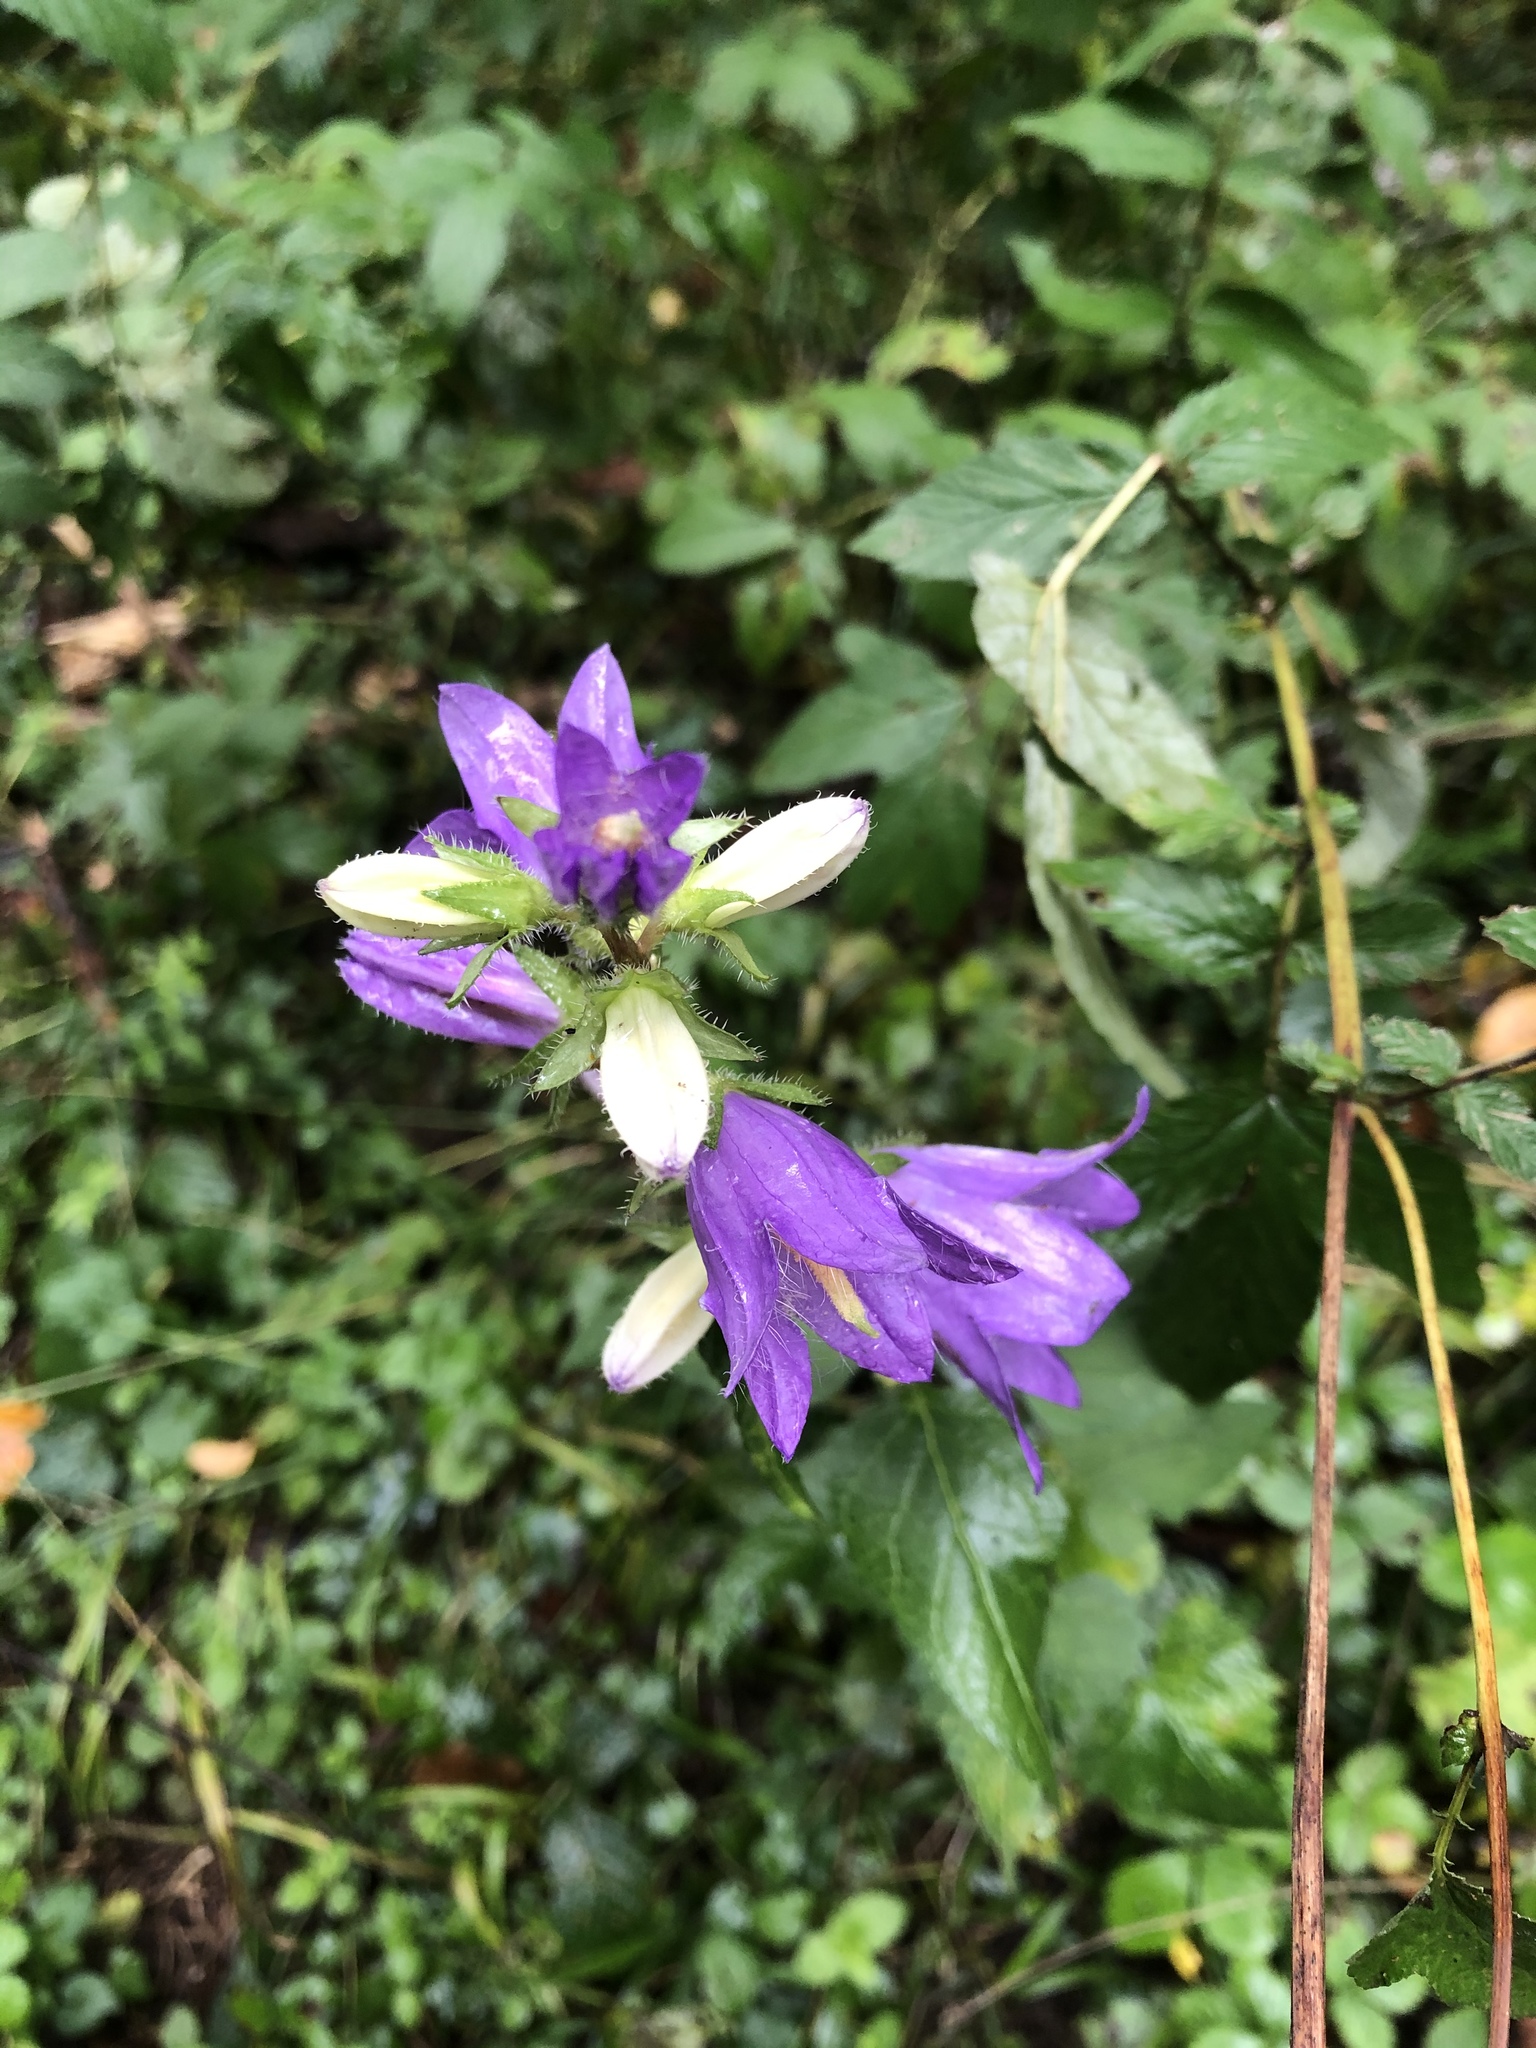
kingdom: Plantae
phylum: Tracheophyta
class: Magnoliopsida
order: Asterales
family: Campanulaceae
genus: Campanula
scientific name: Campanula trachelium
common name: Nettle-leaved bellflower
